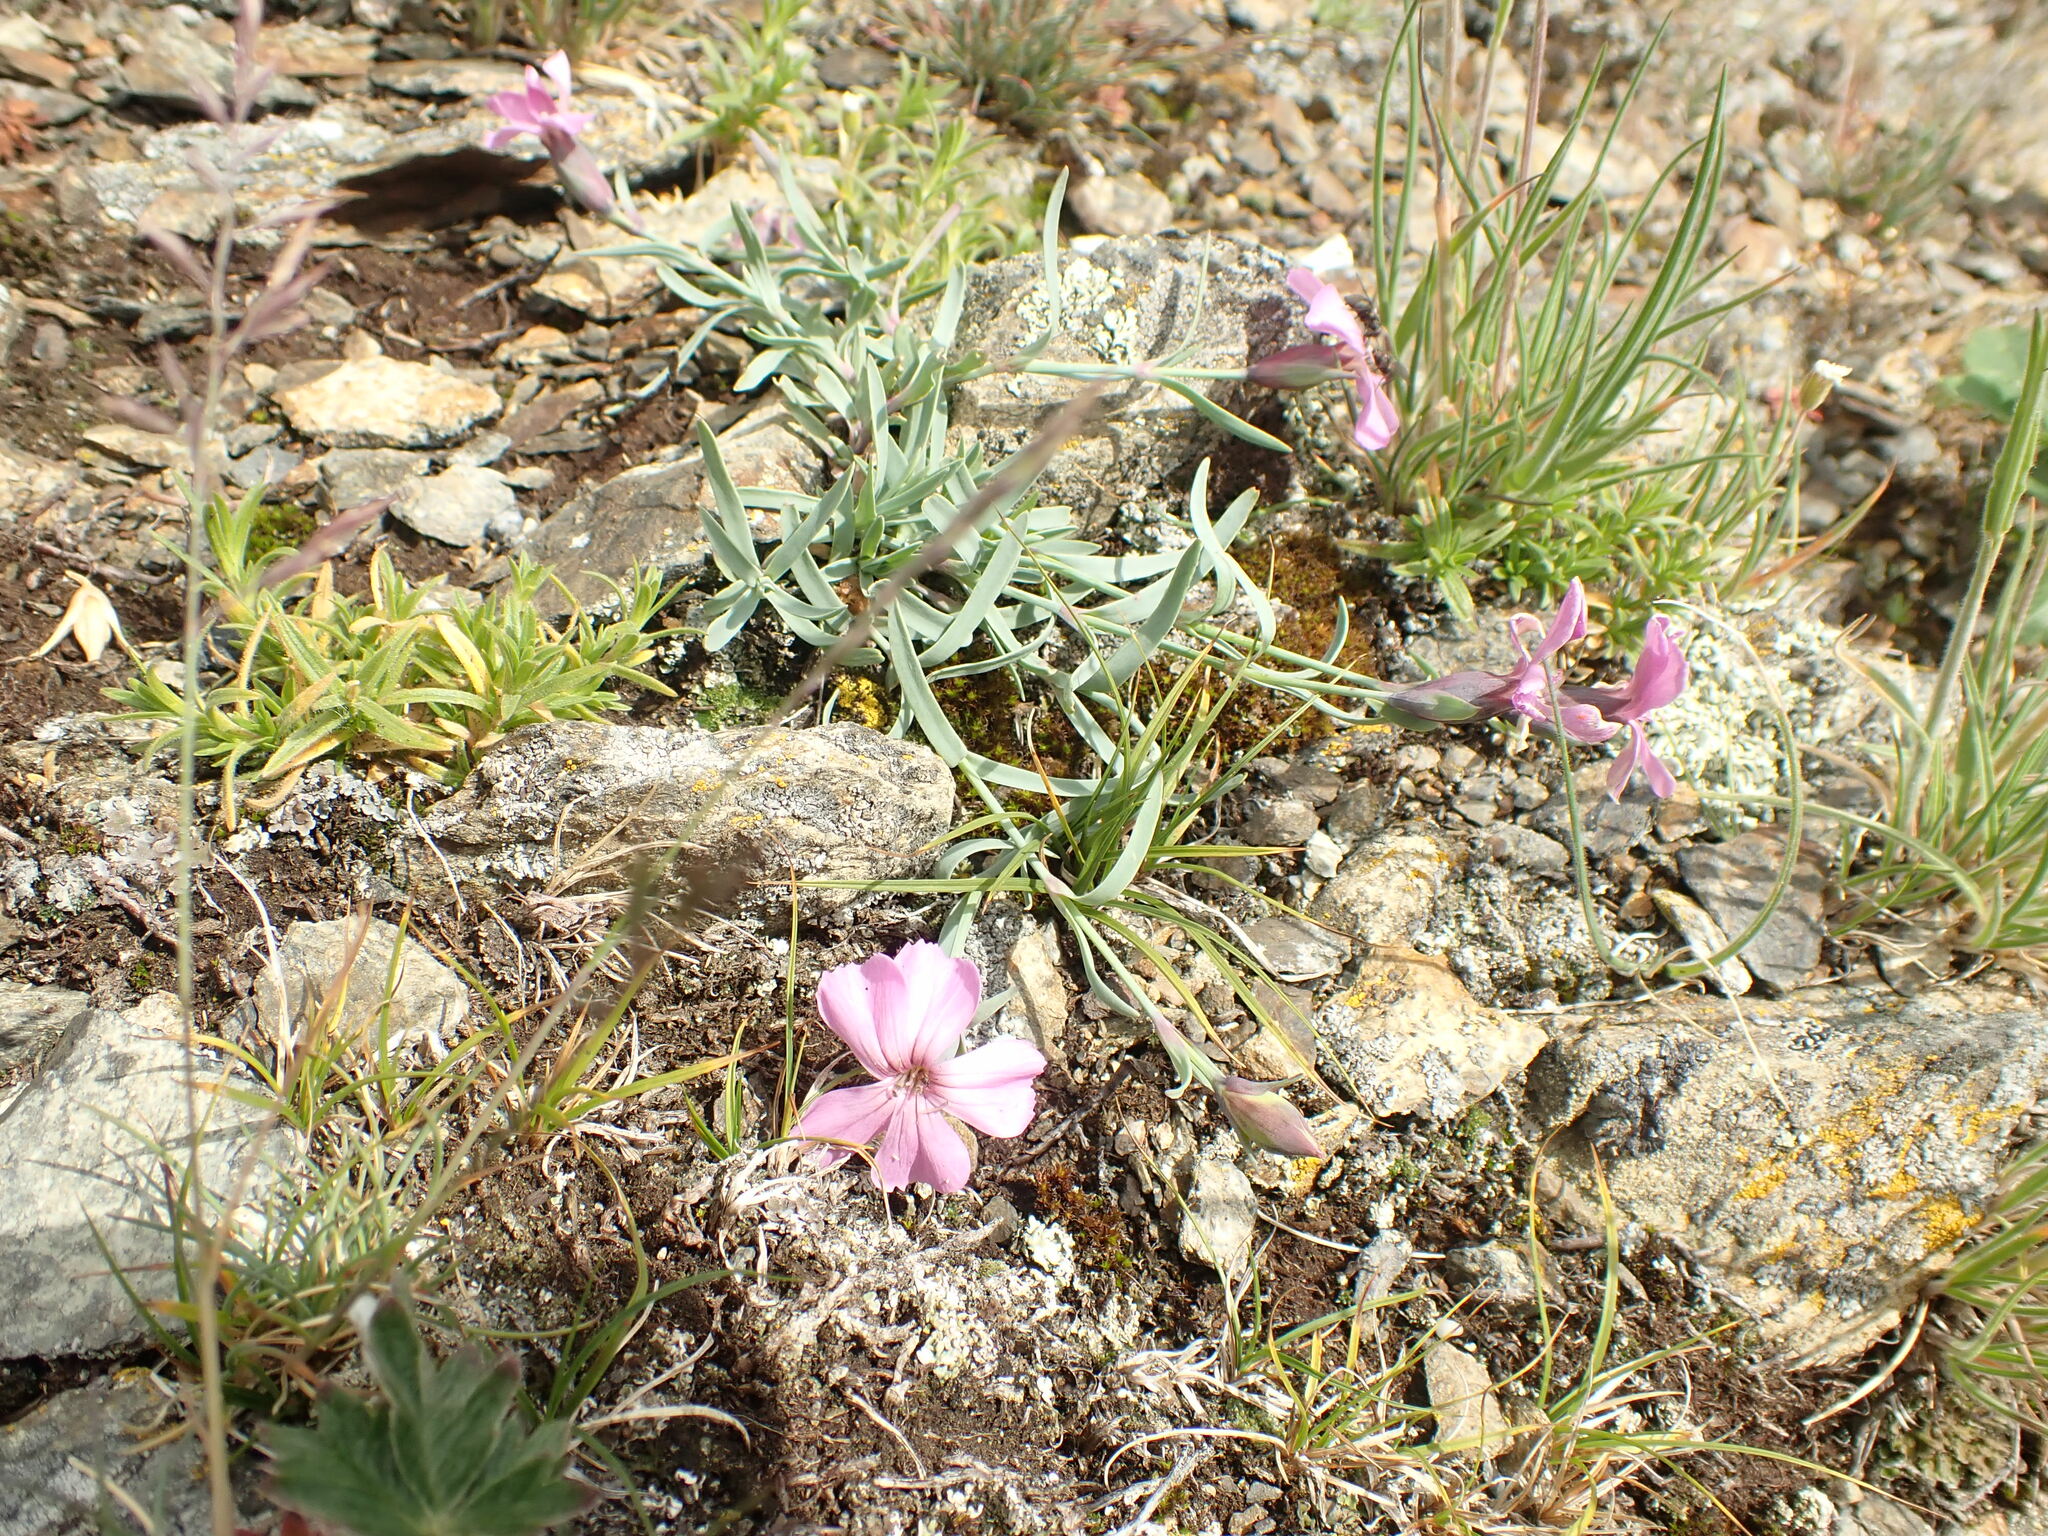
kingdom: Plantae
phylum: Tracheophyta
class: Magnoliopsida
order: Caryophyllales
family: Caryophyllaceae
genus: Dianthus
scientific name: Dianthus repens
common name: Northern pink
